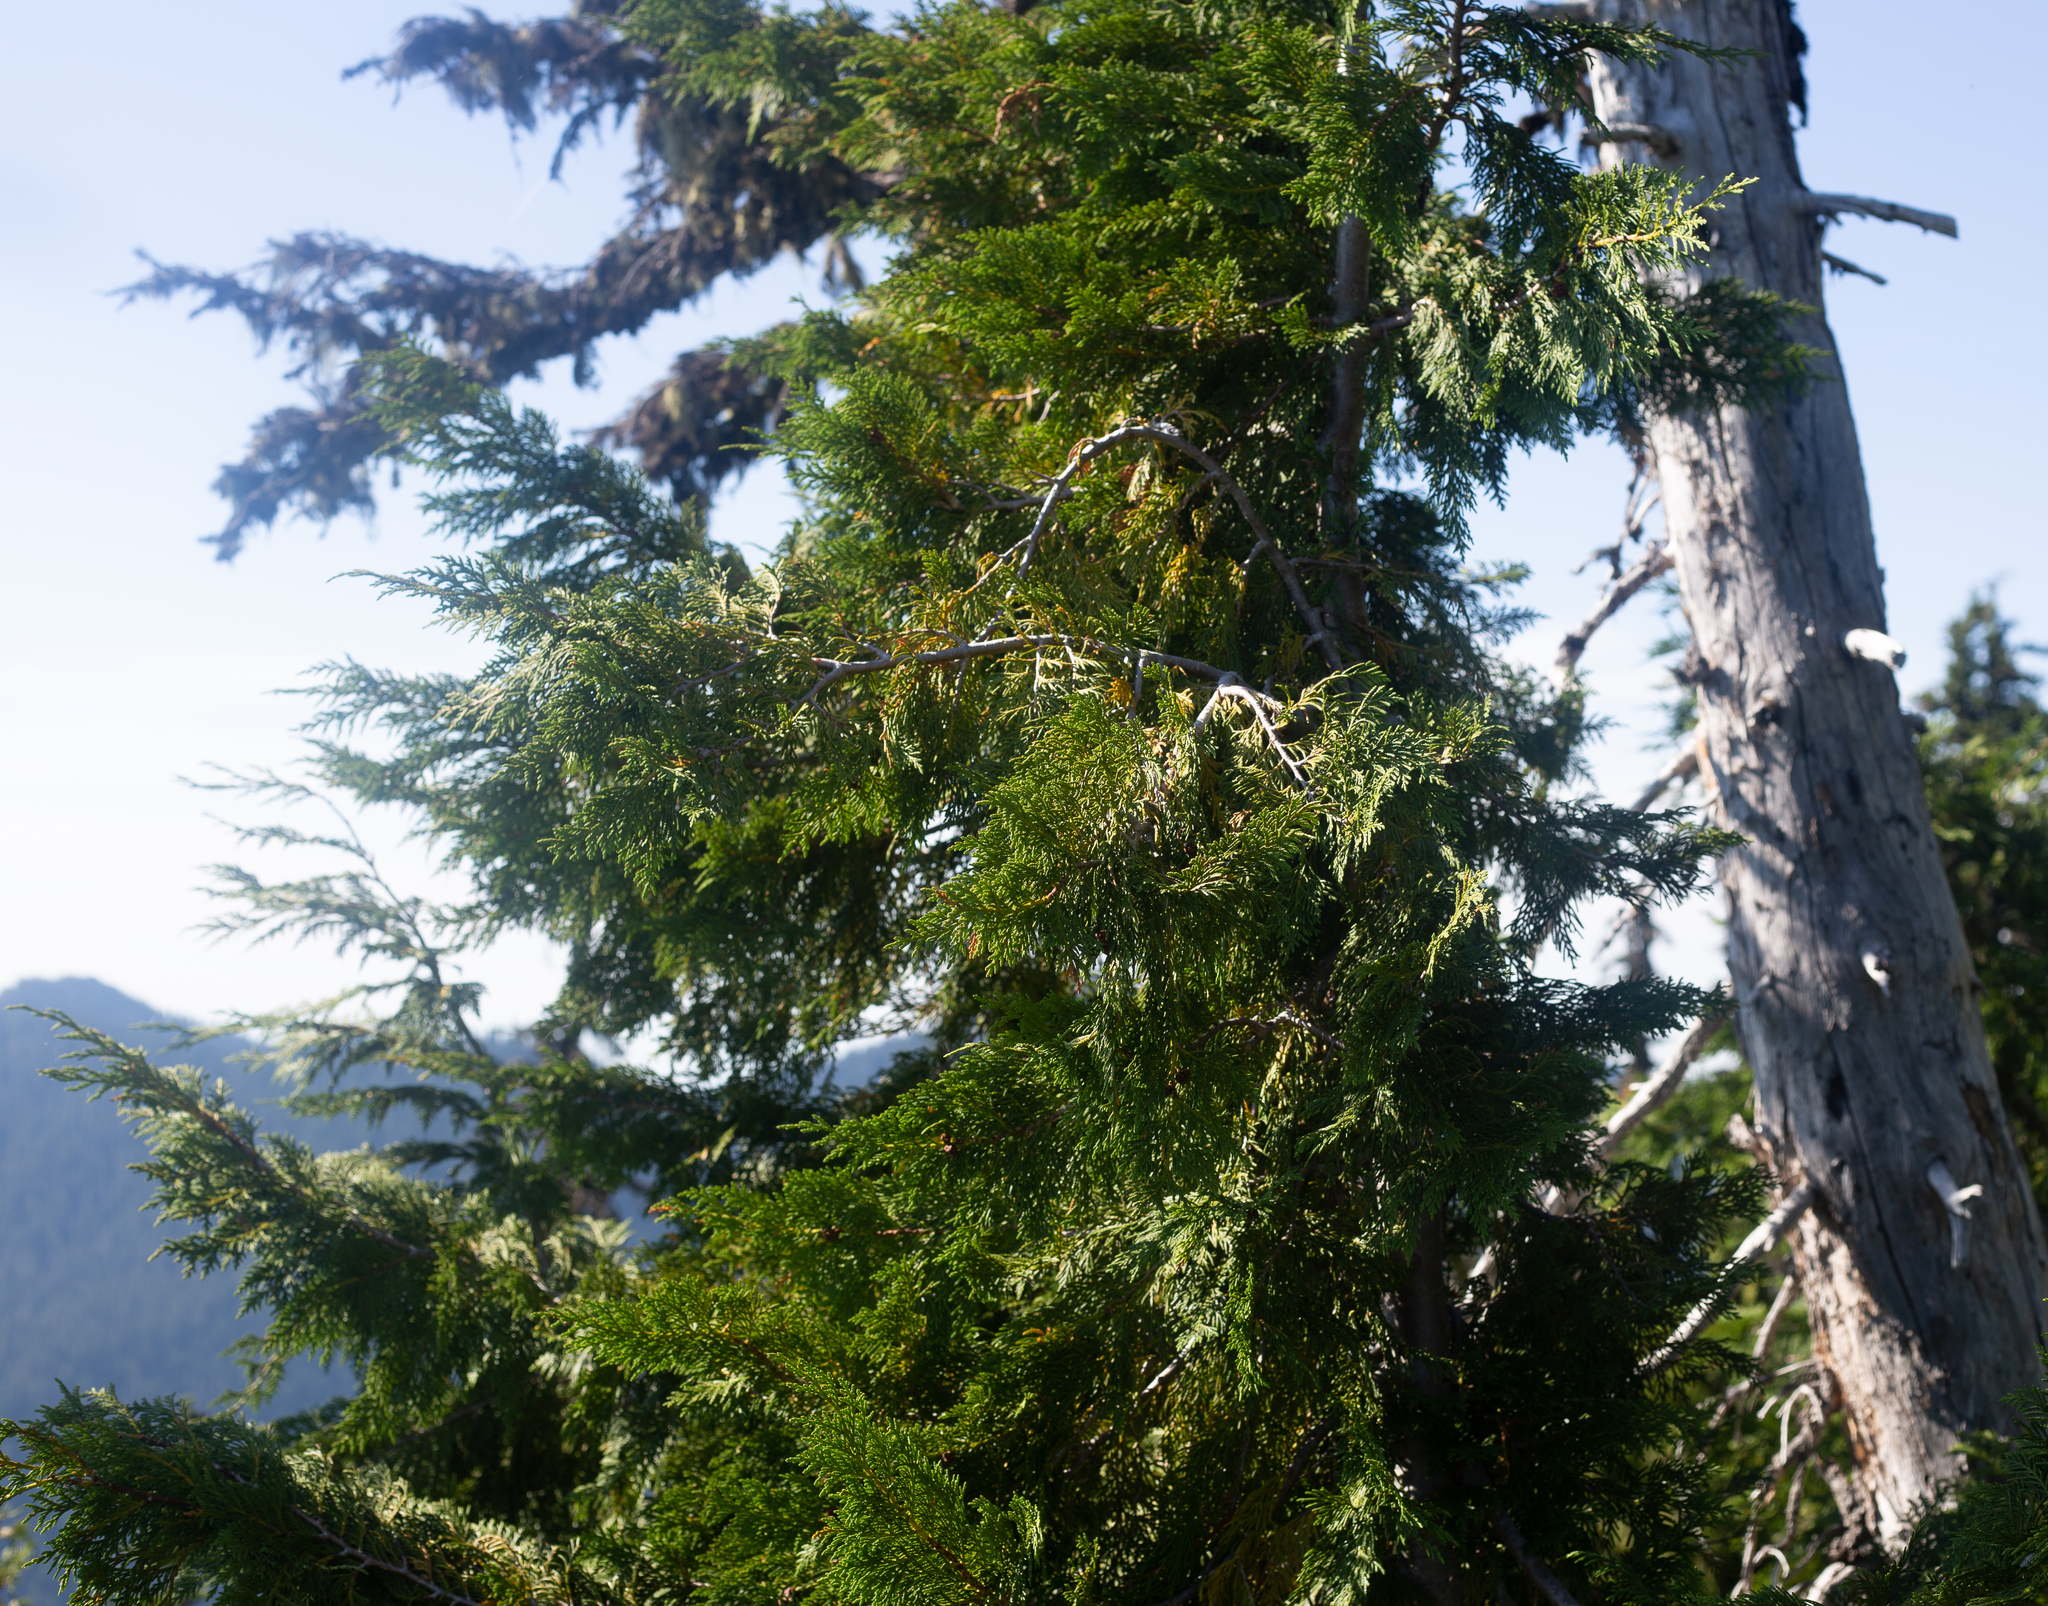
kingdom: Plantae
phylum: Tracheophyta
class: Pinopsida
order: Pinales
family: Cupressaceae
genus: Xanthocyparis
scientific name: Xanthocyparis nootkatensis
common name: Nootka cypress
